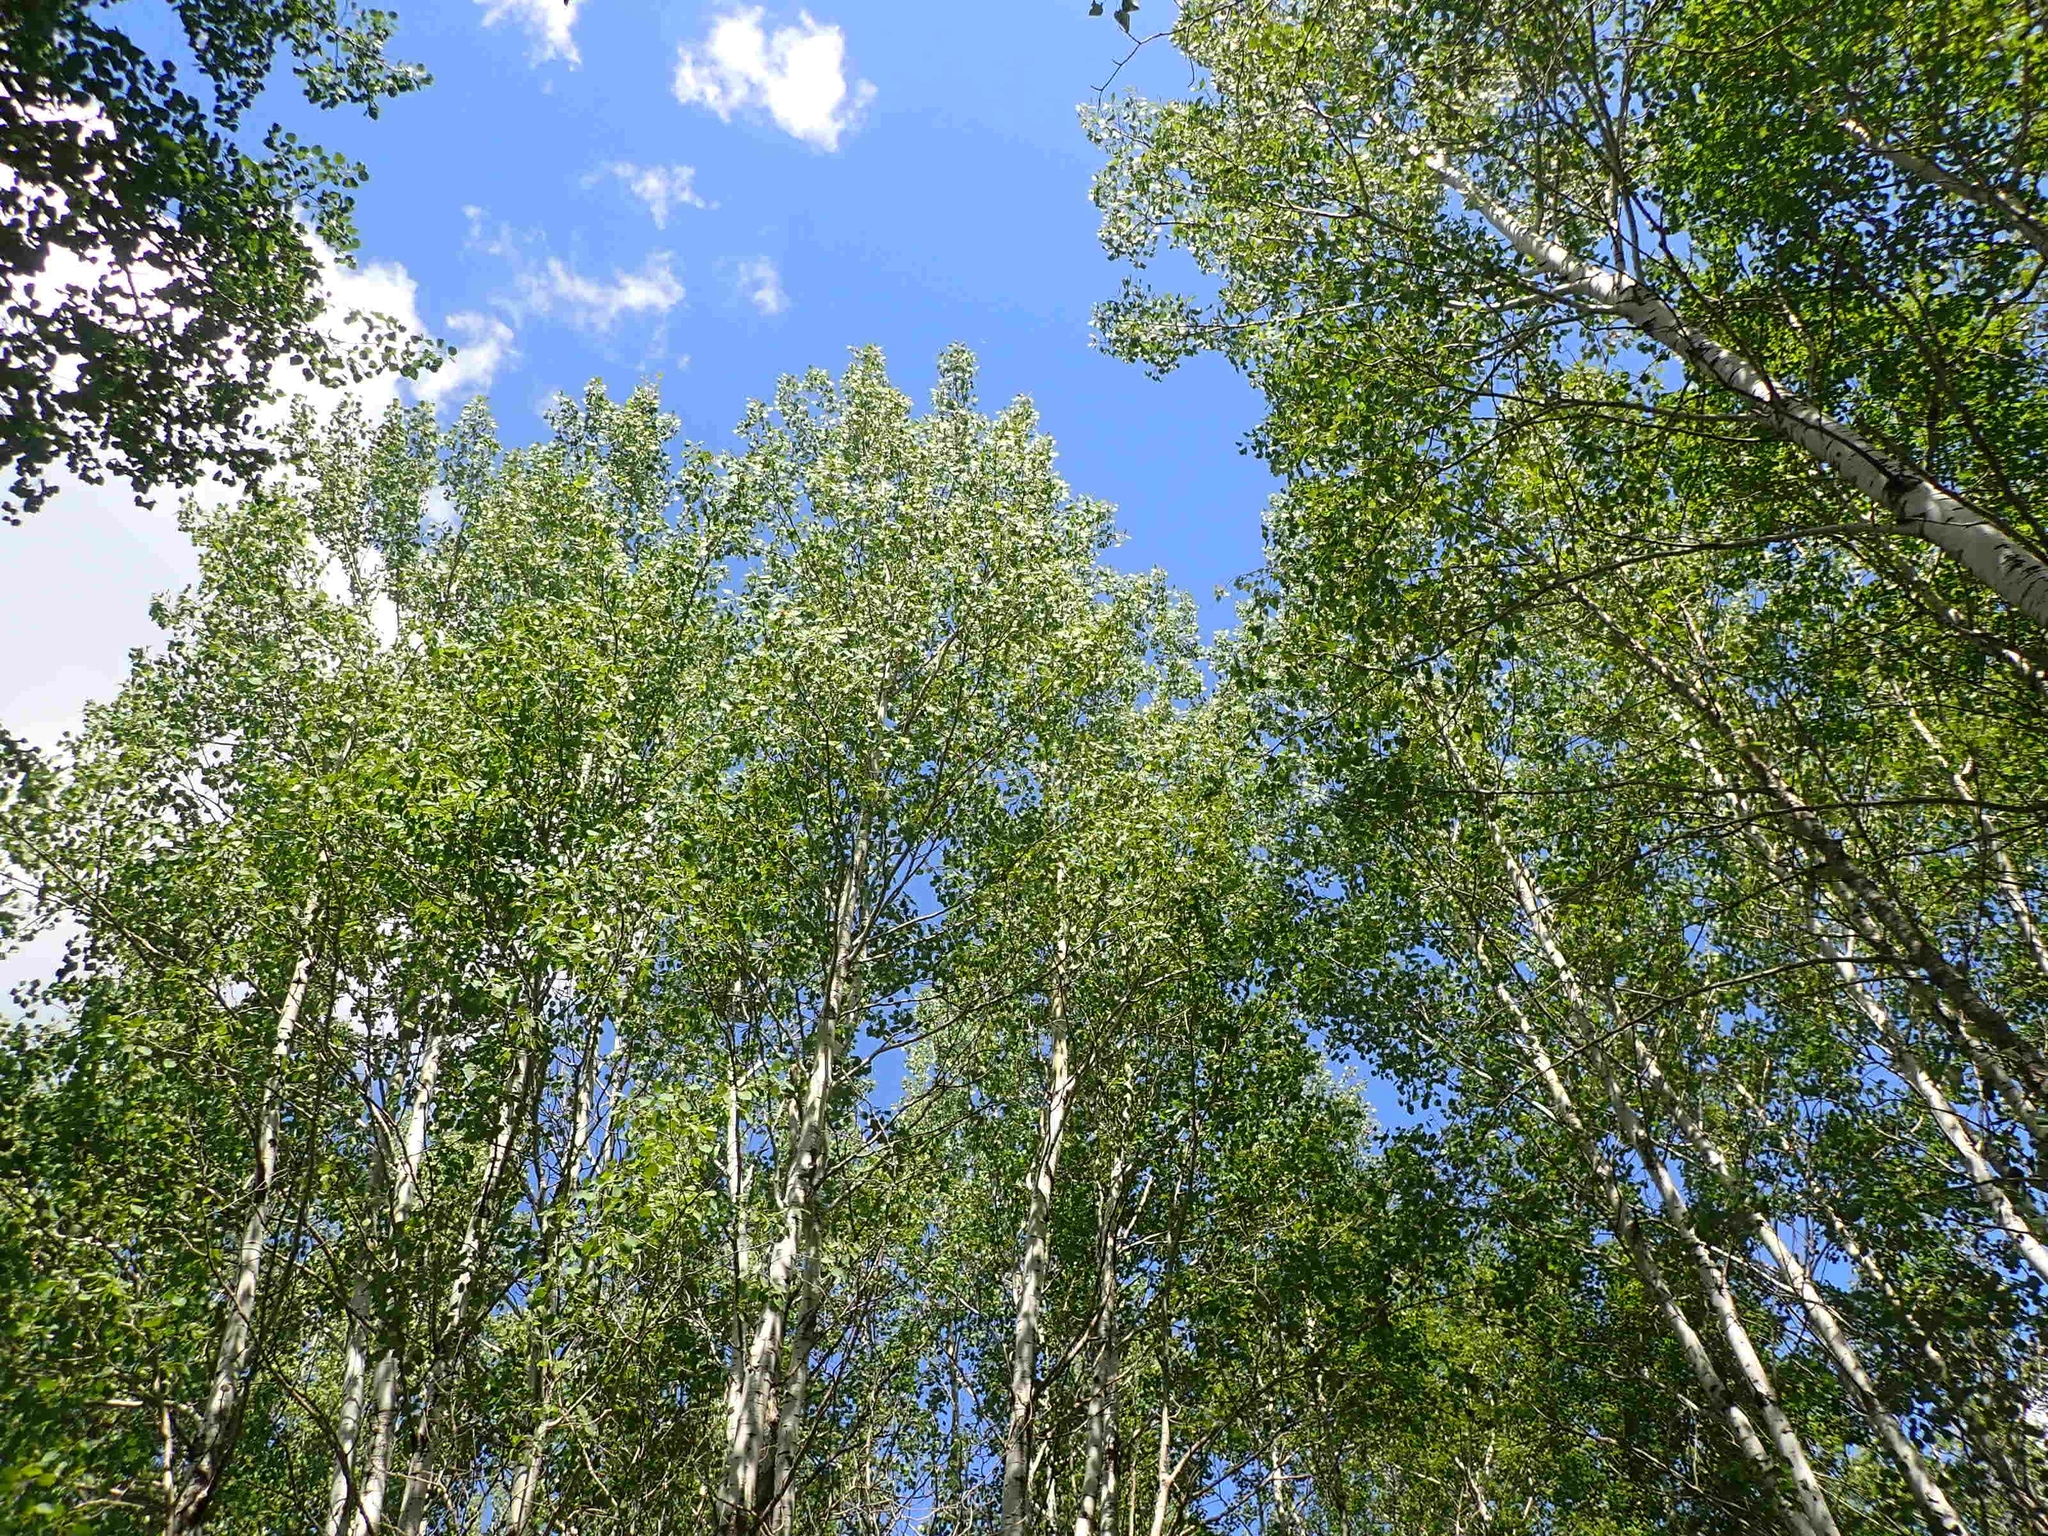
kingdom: Plantae
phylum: Tracheophyta
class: Magnoliopsida
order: Malpighiales
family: Salicaceae
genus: Populus
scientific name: Populus tremuloides
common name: Quaking aspen
